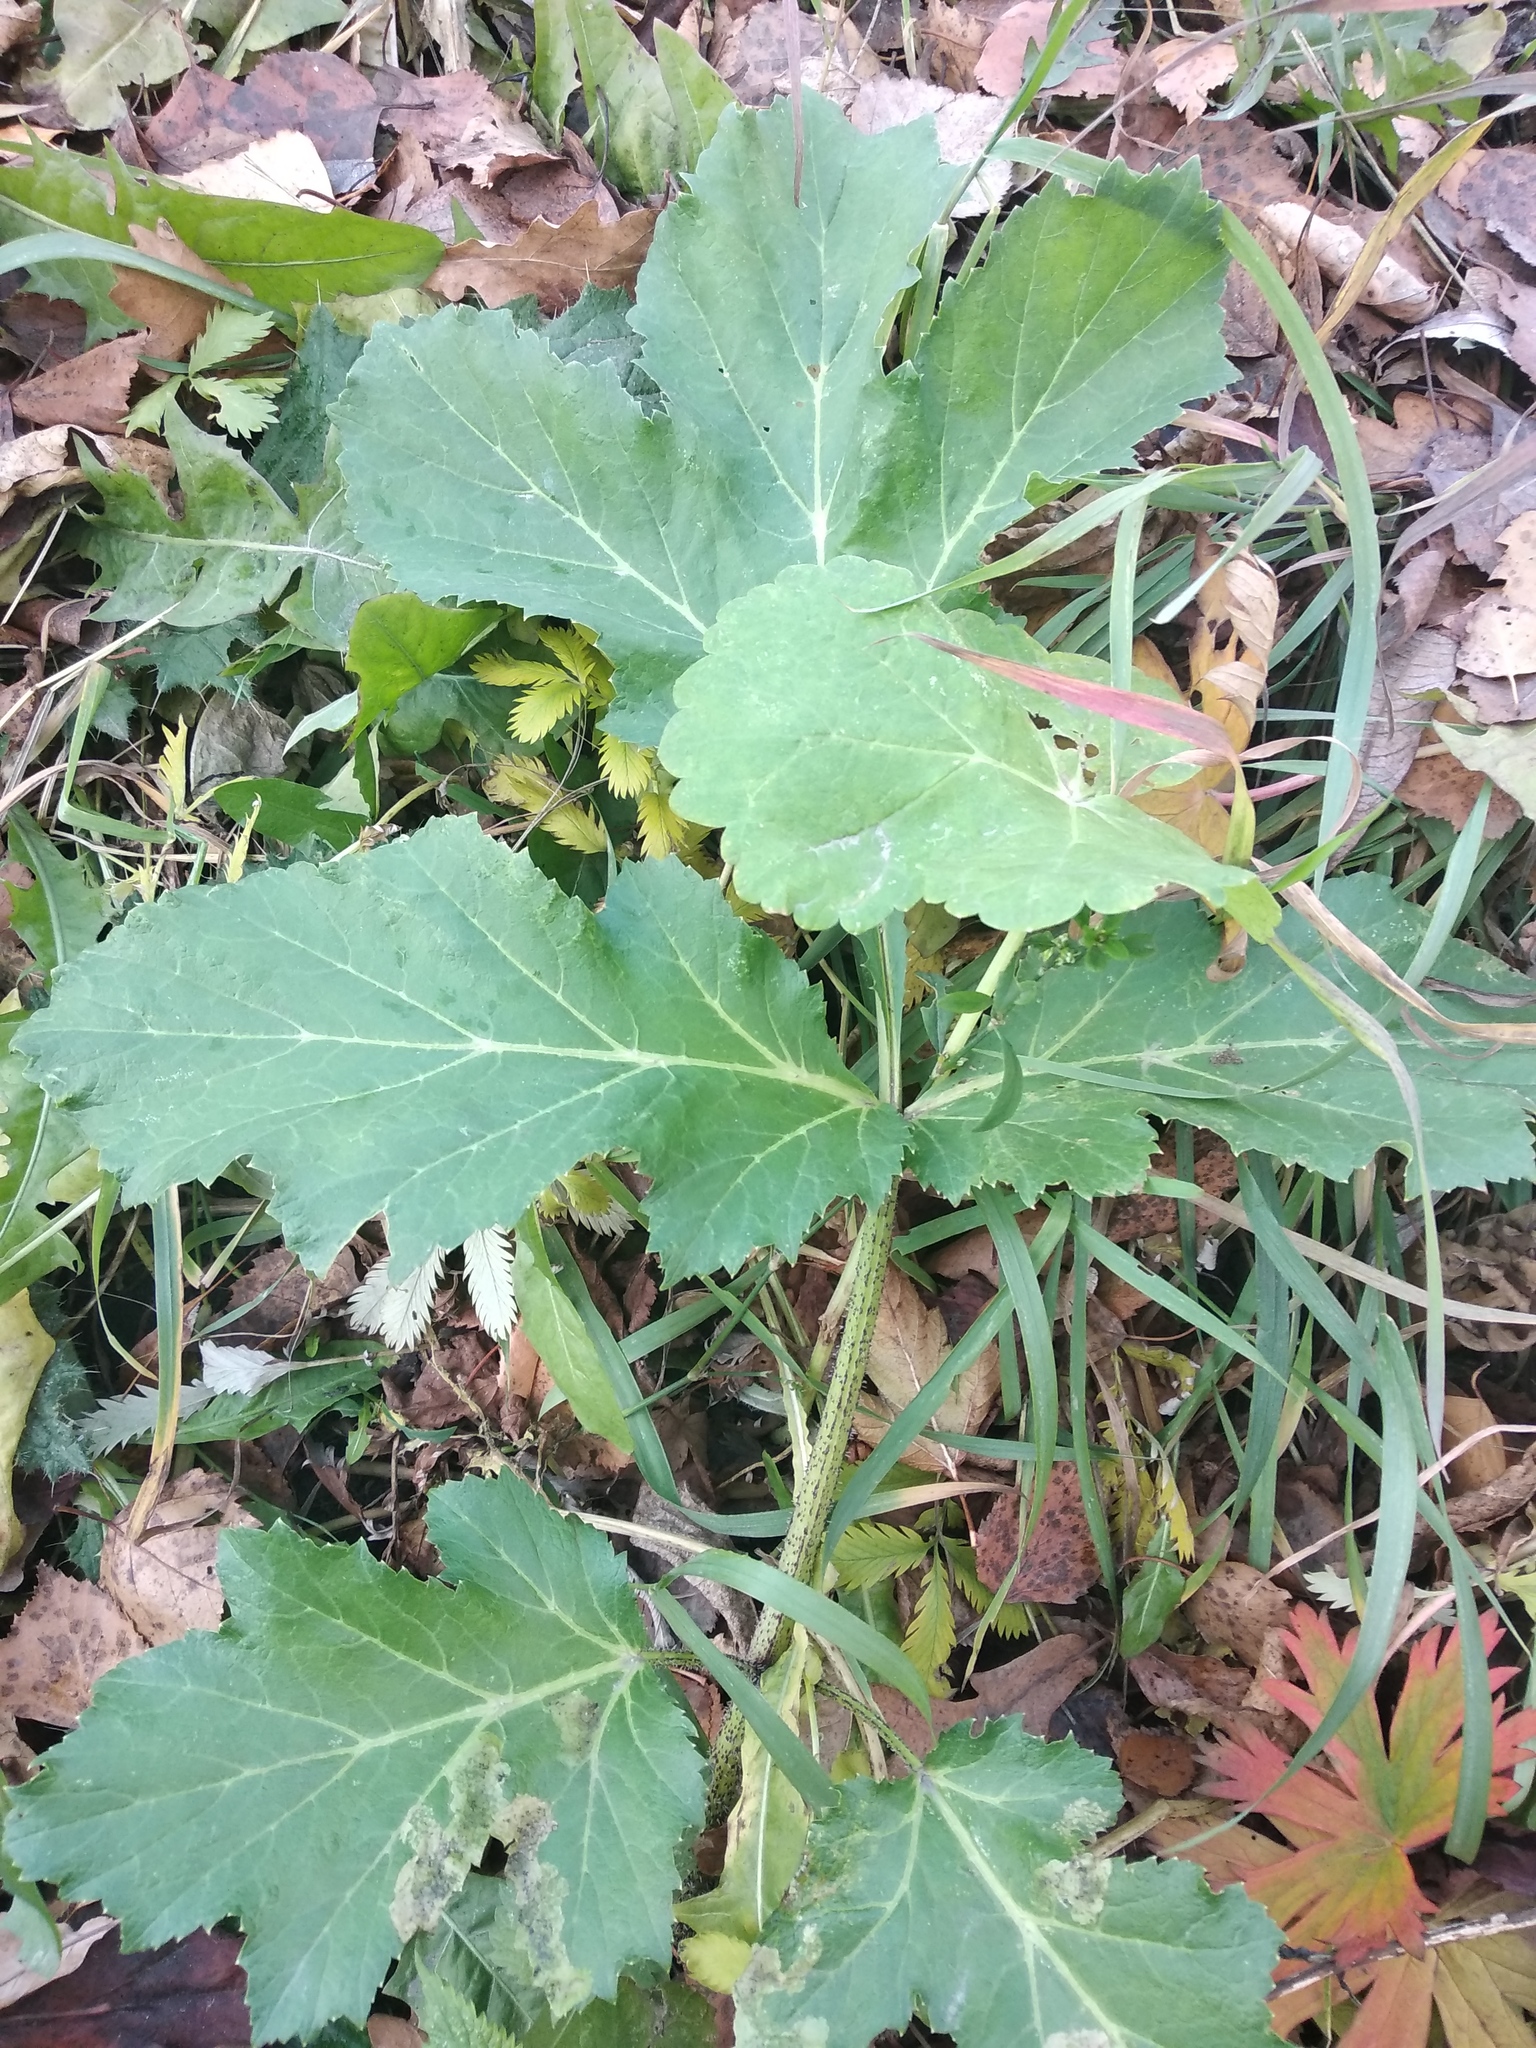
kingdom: Plantae
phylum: Tracheophyta
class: Magnoliopsida
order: Apiales
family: Apiaceae
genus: Heracleum
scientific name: Heracleum sosnowskyi
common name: Sosnowsky's hogweed
